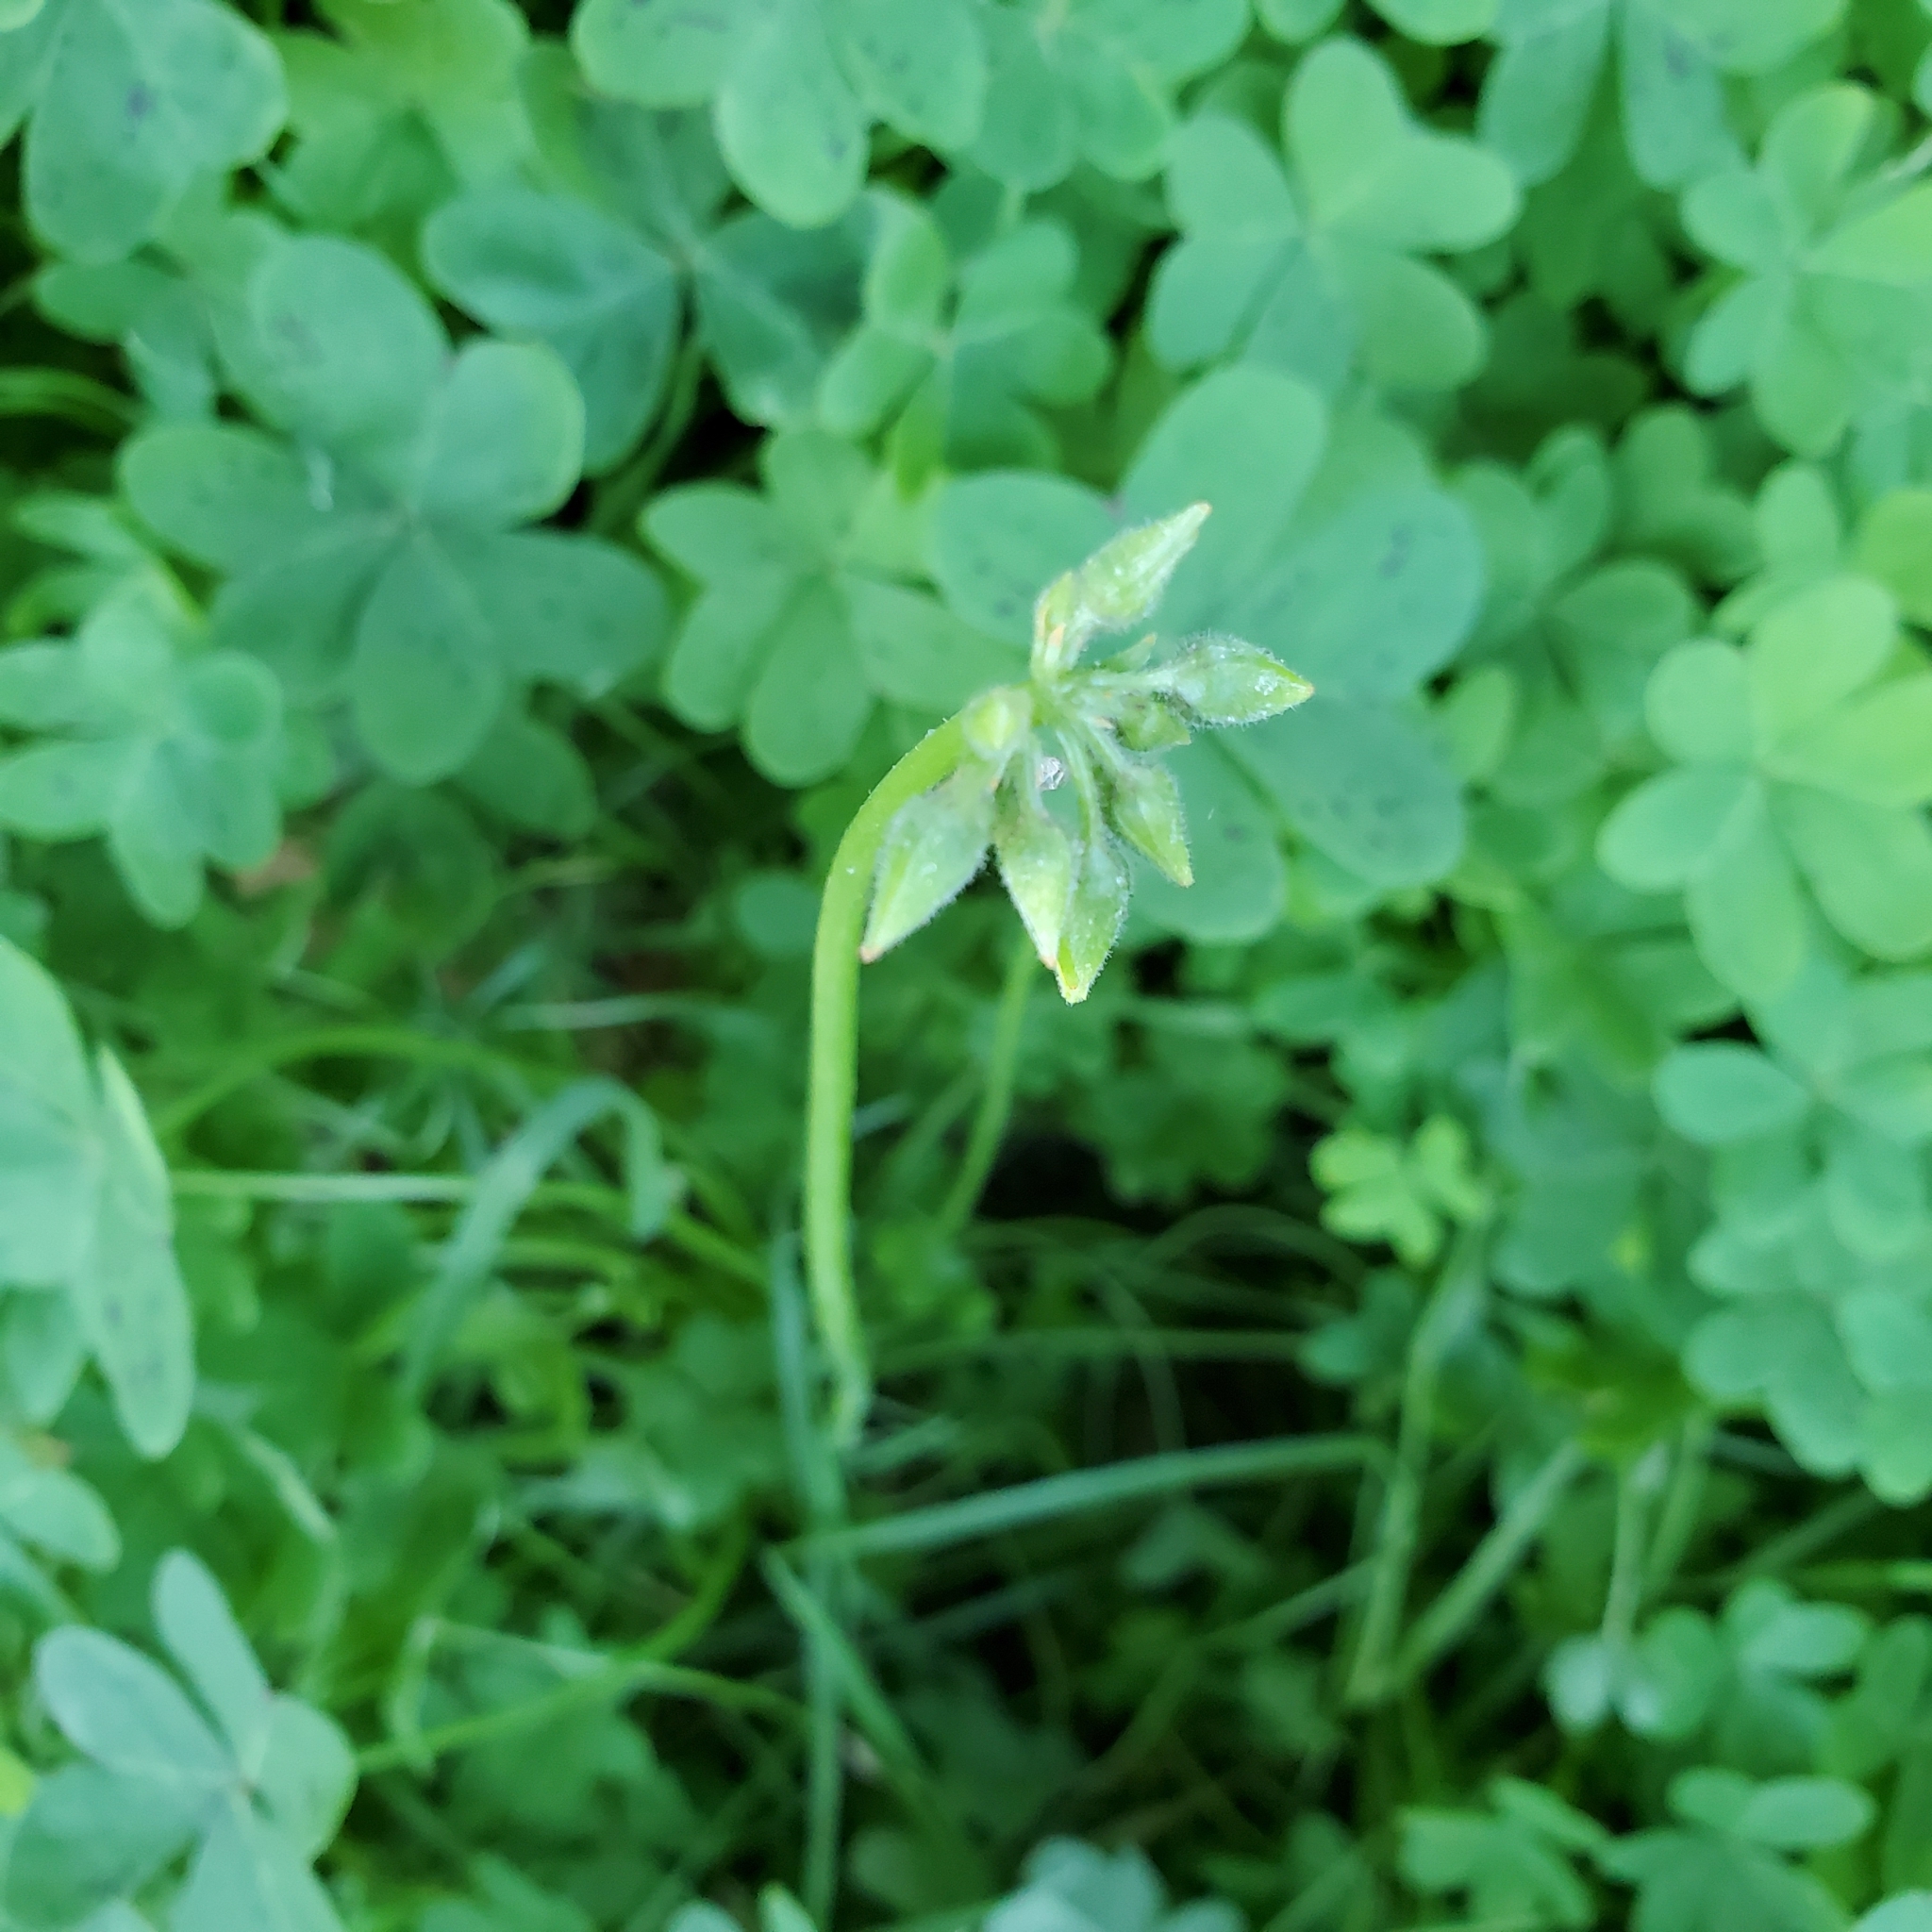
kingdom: Plantae
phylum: Tracheophyta
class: Magnoliopsida
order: Oxalidales
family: Oxalidaceae
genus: Oxalis
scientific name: Oxalis pes-caprae
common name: Bermuda-buttercup
